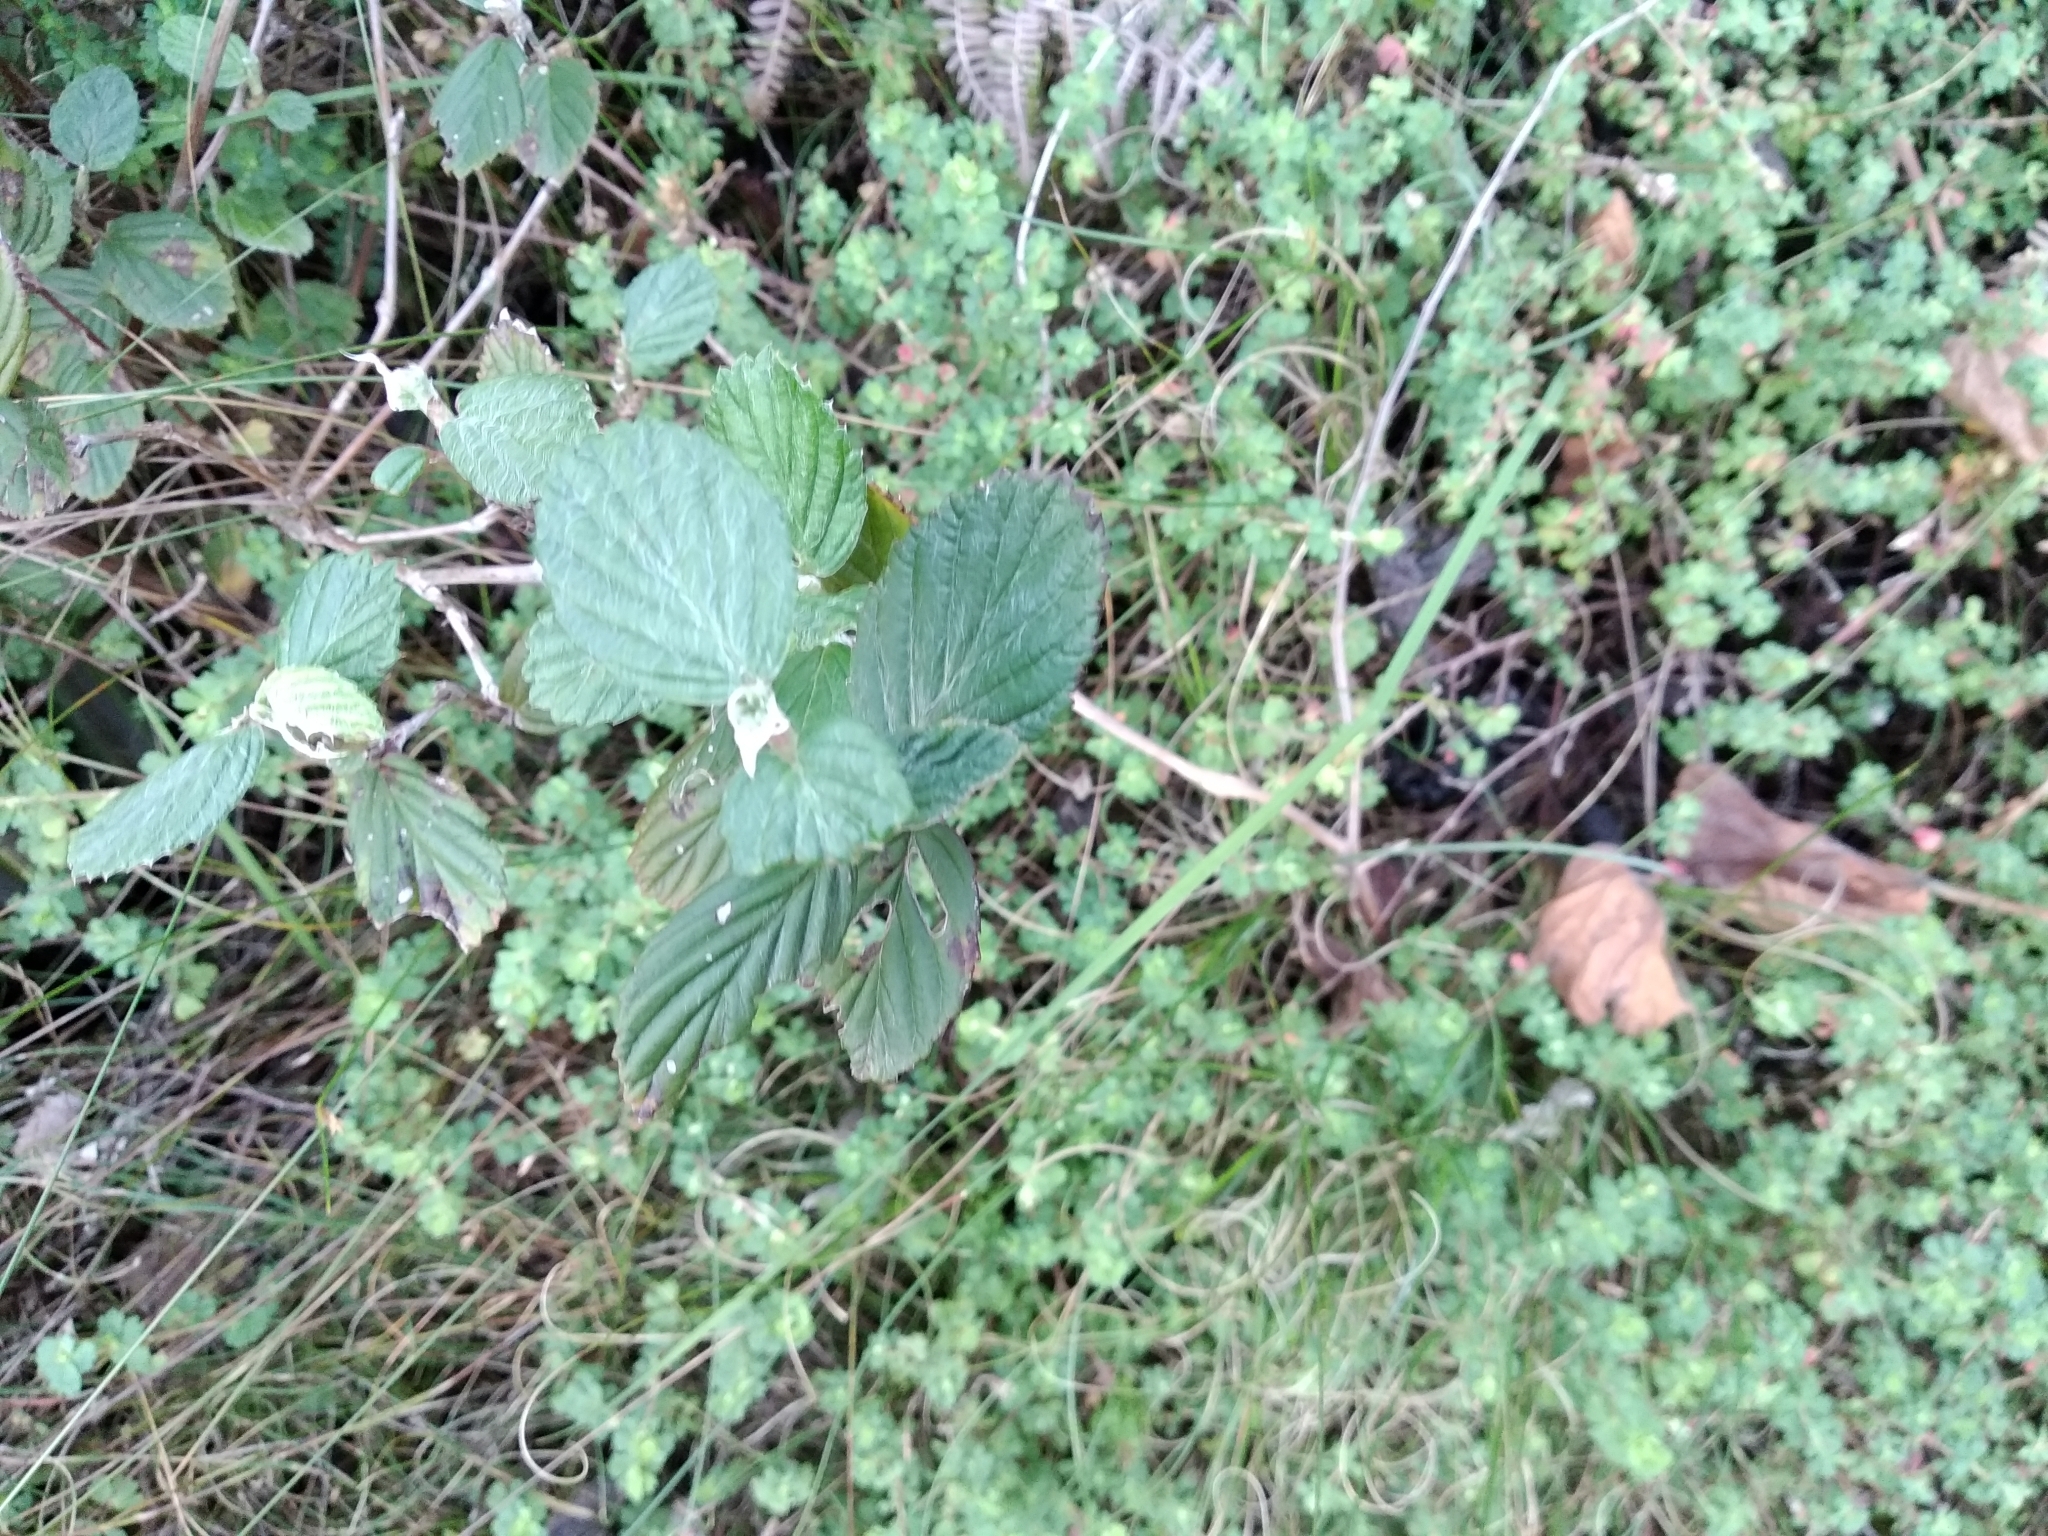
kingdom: Plantae
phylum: Tracheophyta
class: Magnoliopsida
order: Rosales
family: Rosaceae
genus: Cliffortia
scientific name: Cliffortia odorata
